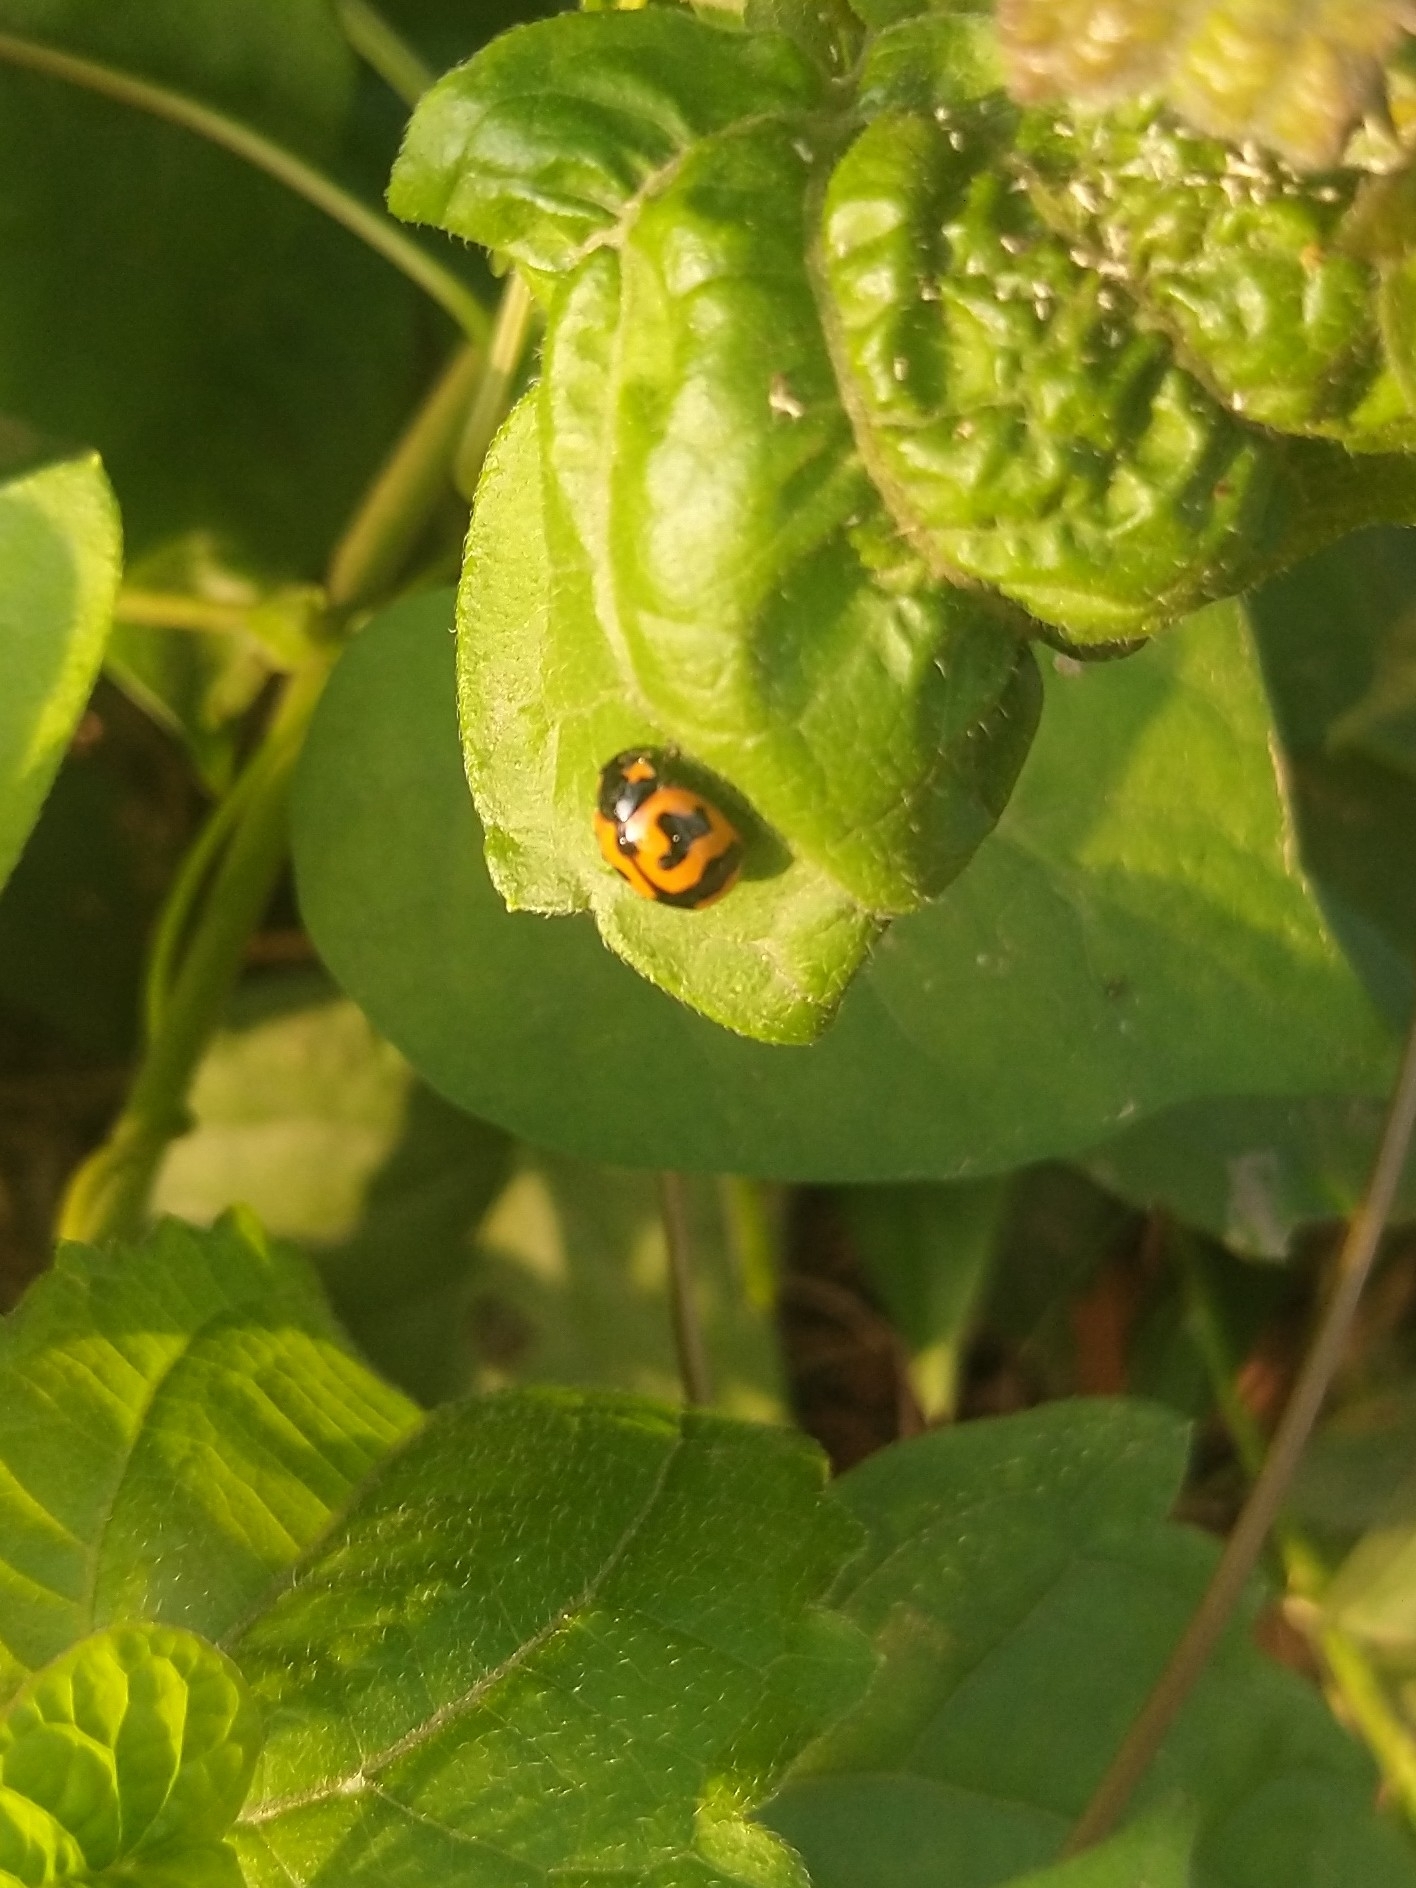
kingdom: Animalia
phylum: Arthropoda
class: Insecta
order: Coleoptera
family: Coccinellidae
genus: Coccinella
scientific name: Coccinella transversalis
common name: Transverse lady beetle
